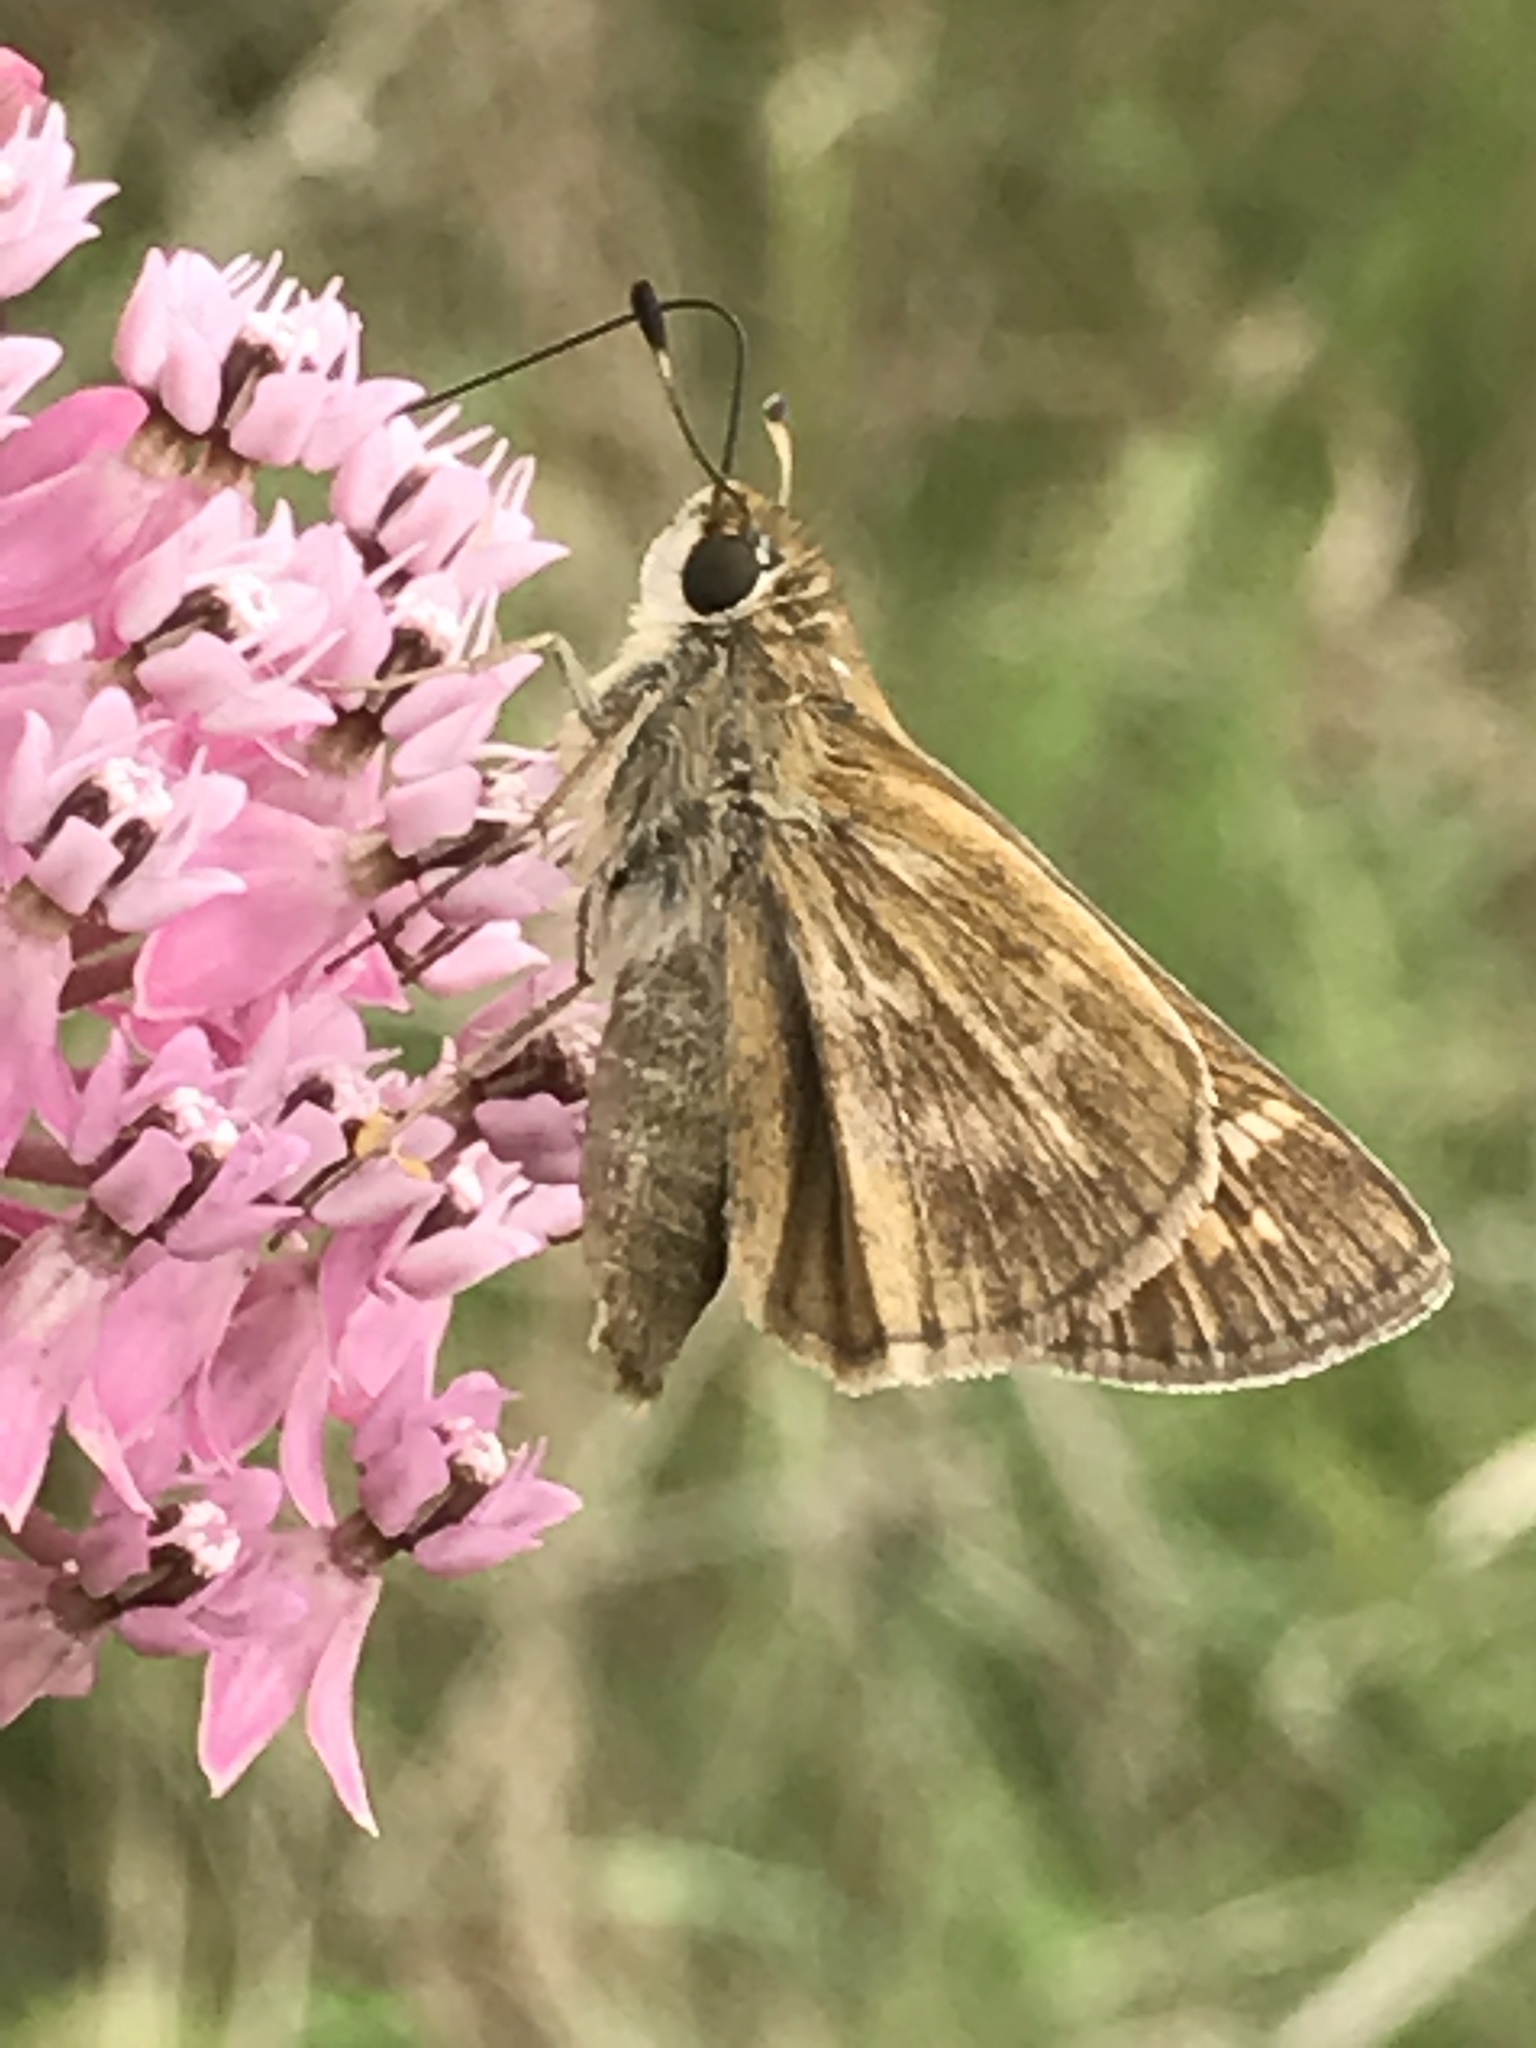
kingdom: Animalia
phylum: Arthropoda
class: Insecta
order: Lepidoptera
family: Hesperiidae
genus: Atalopedes
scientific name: Atalopedes
